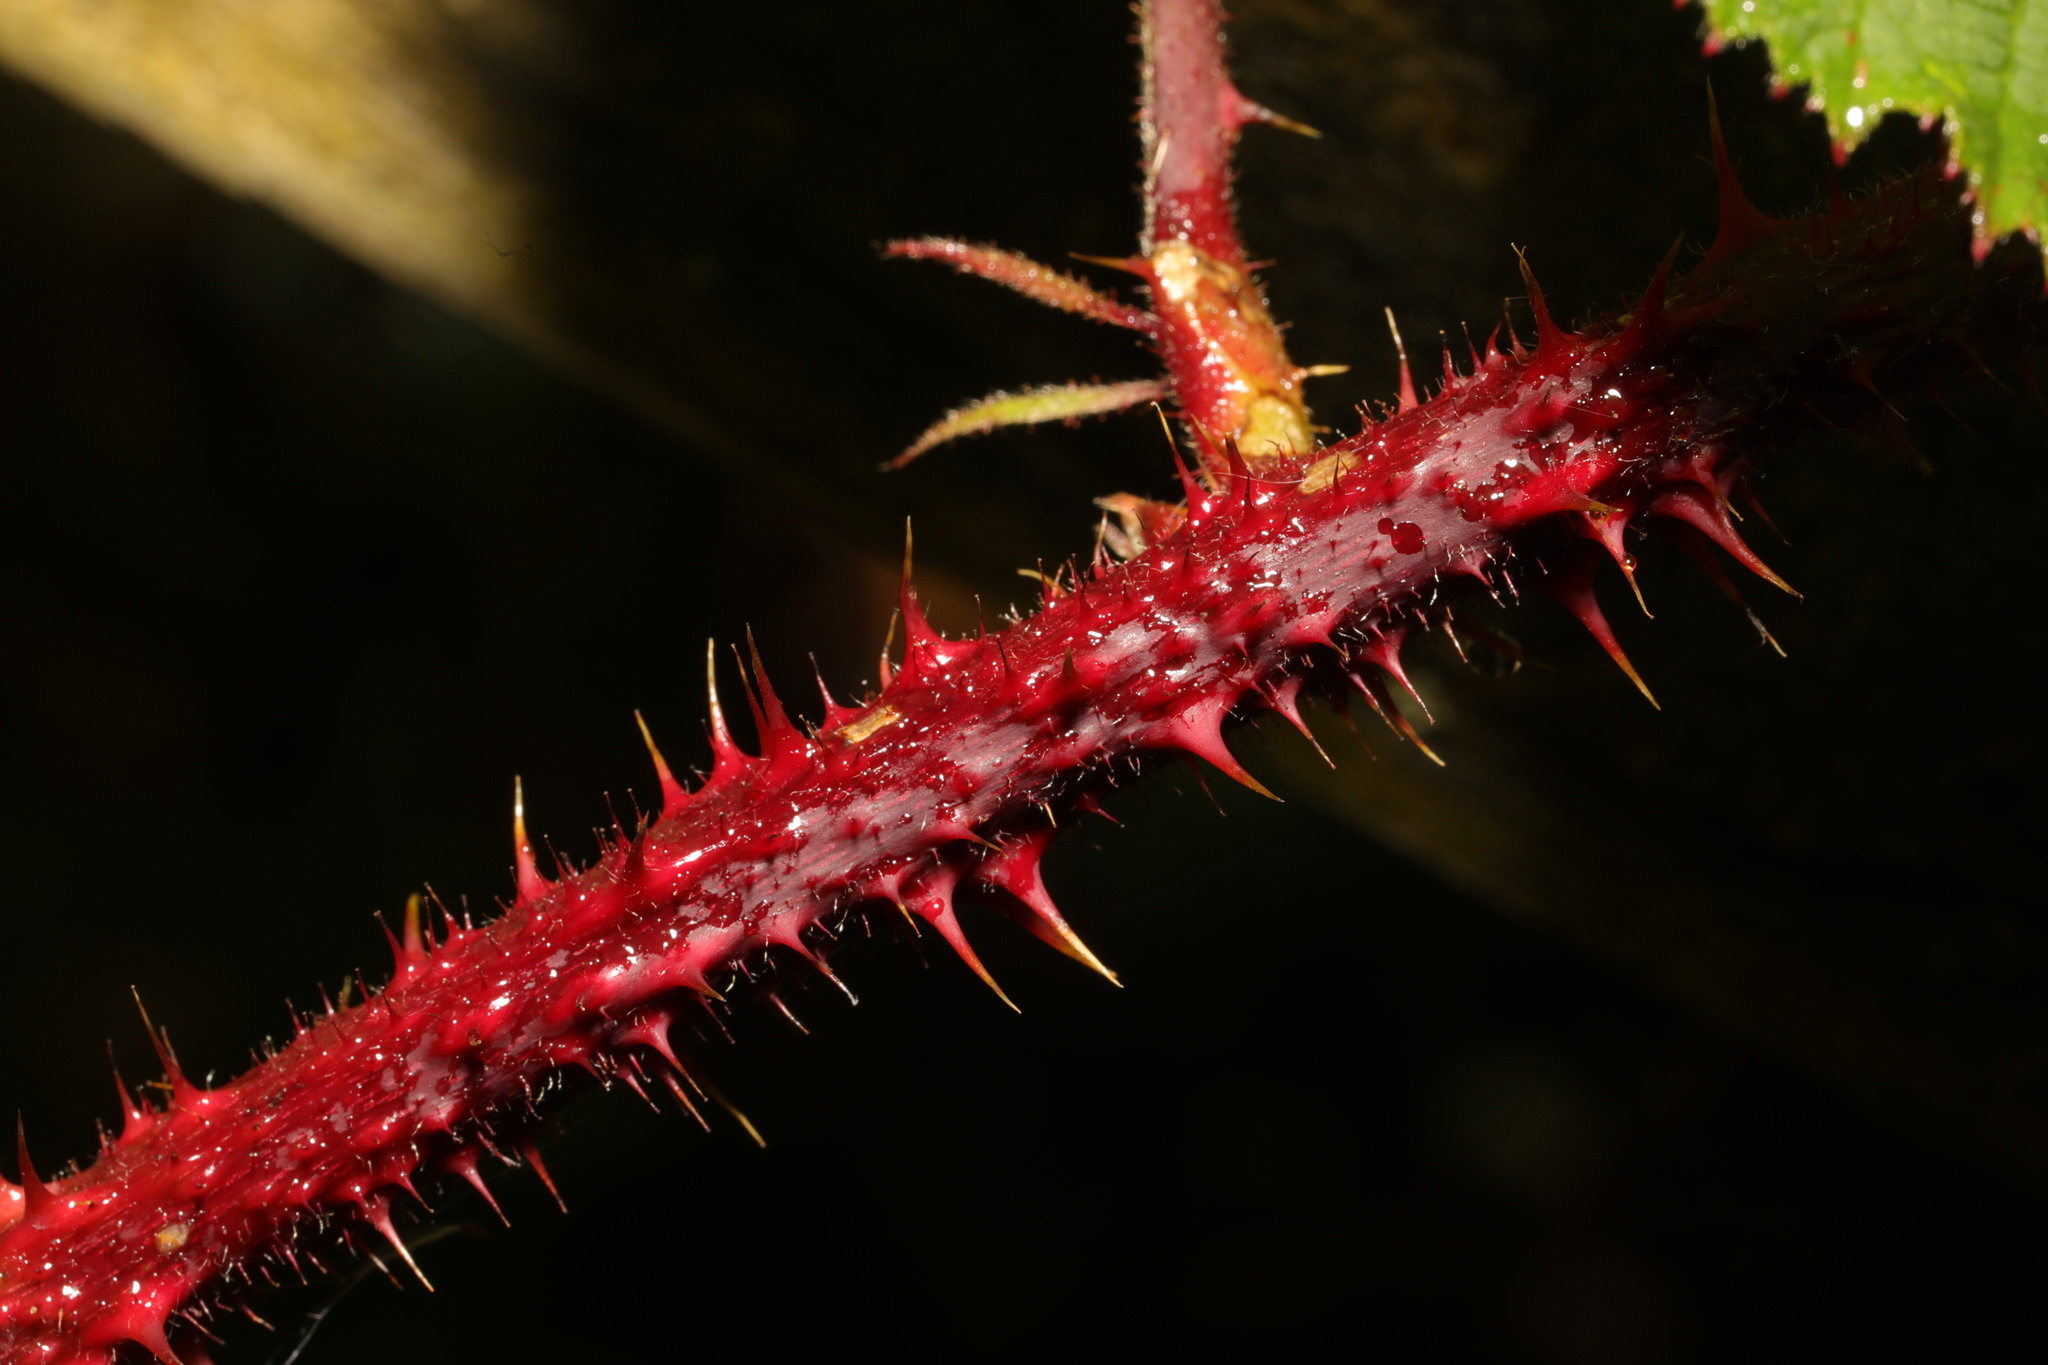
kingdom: Plantae
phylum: Tracheophyta
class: Magnoliopsida
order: Rosales
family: Rosaceae
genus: Rubus
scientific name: Rubus horrefactus
